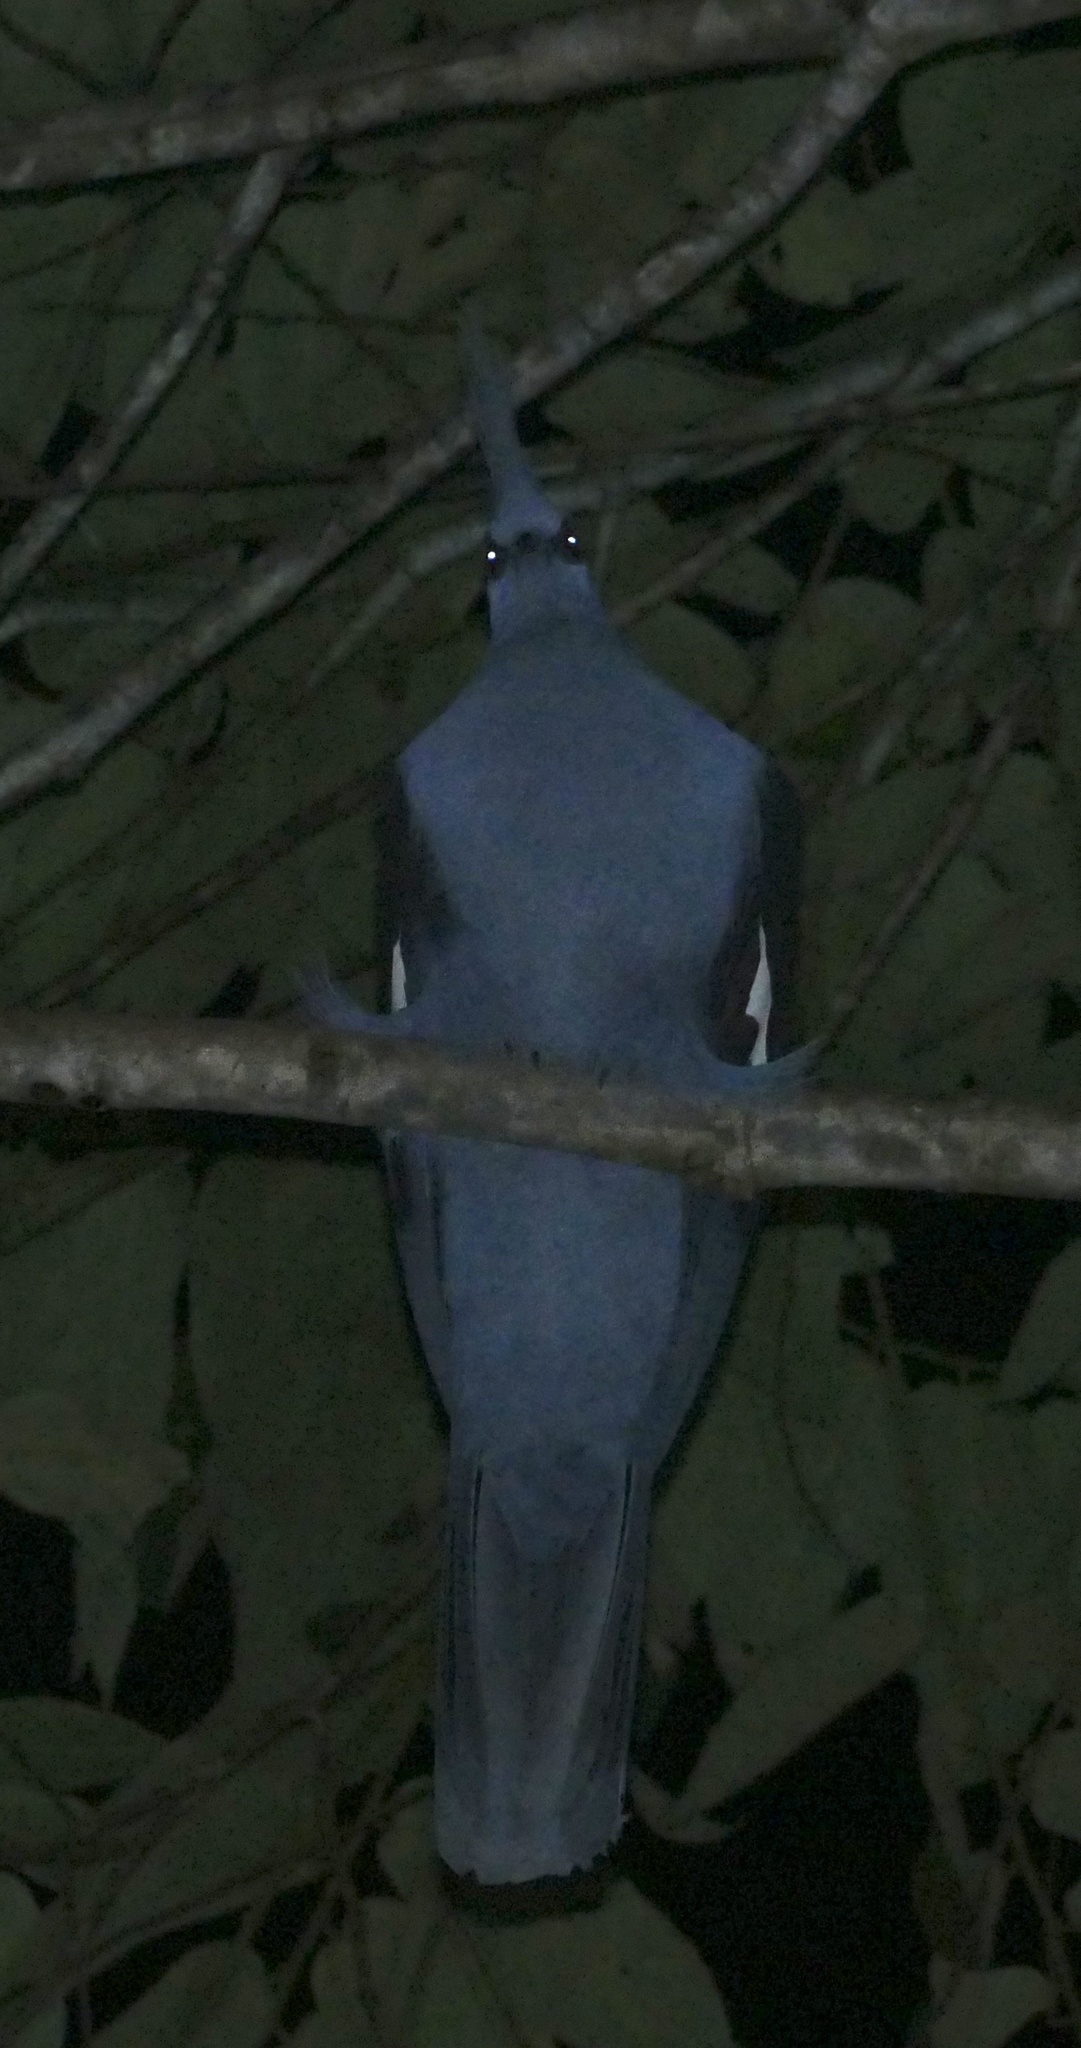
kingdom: Animalia
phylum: Chordata
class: Aves
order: Columbiformes
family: Columbidae
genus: Goura
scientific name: Goura cristata
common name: Western crowned-pigeon
